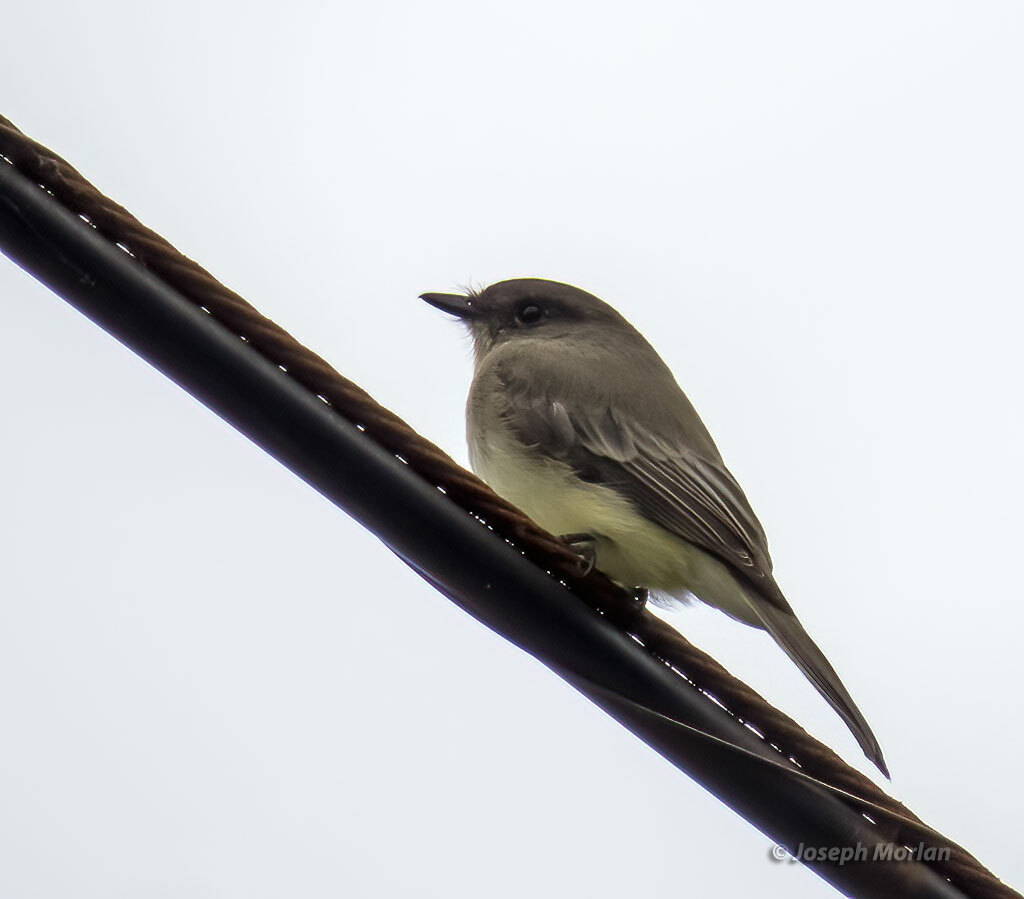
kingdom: Animalia
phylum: Chordata
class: Aves
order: Passeriformes
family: Tyrannidae
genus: Sayornis
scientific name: Sayornis phoebe
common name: Eastern phoebe
